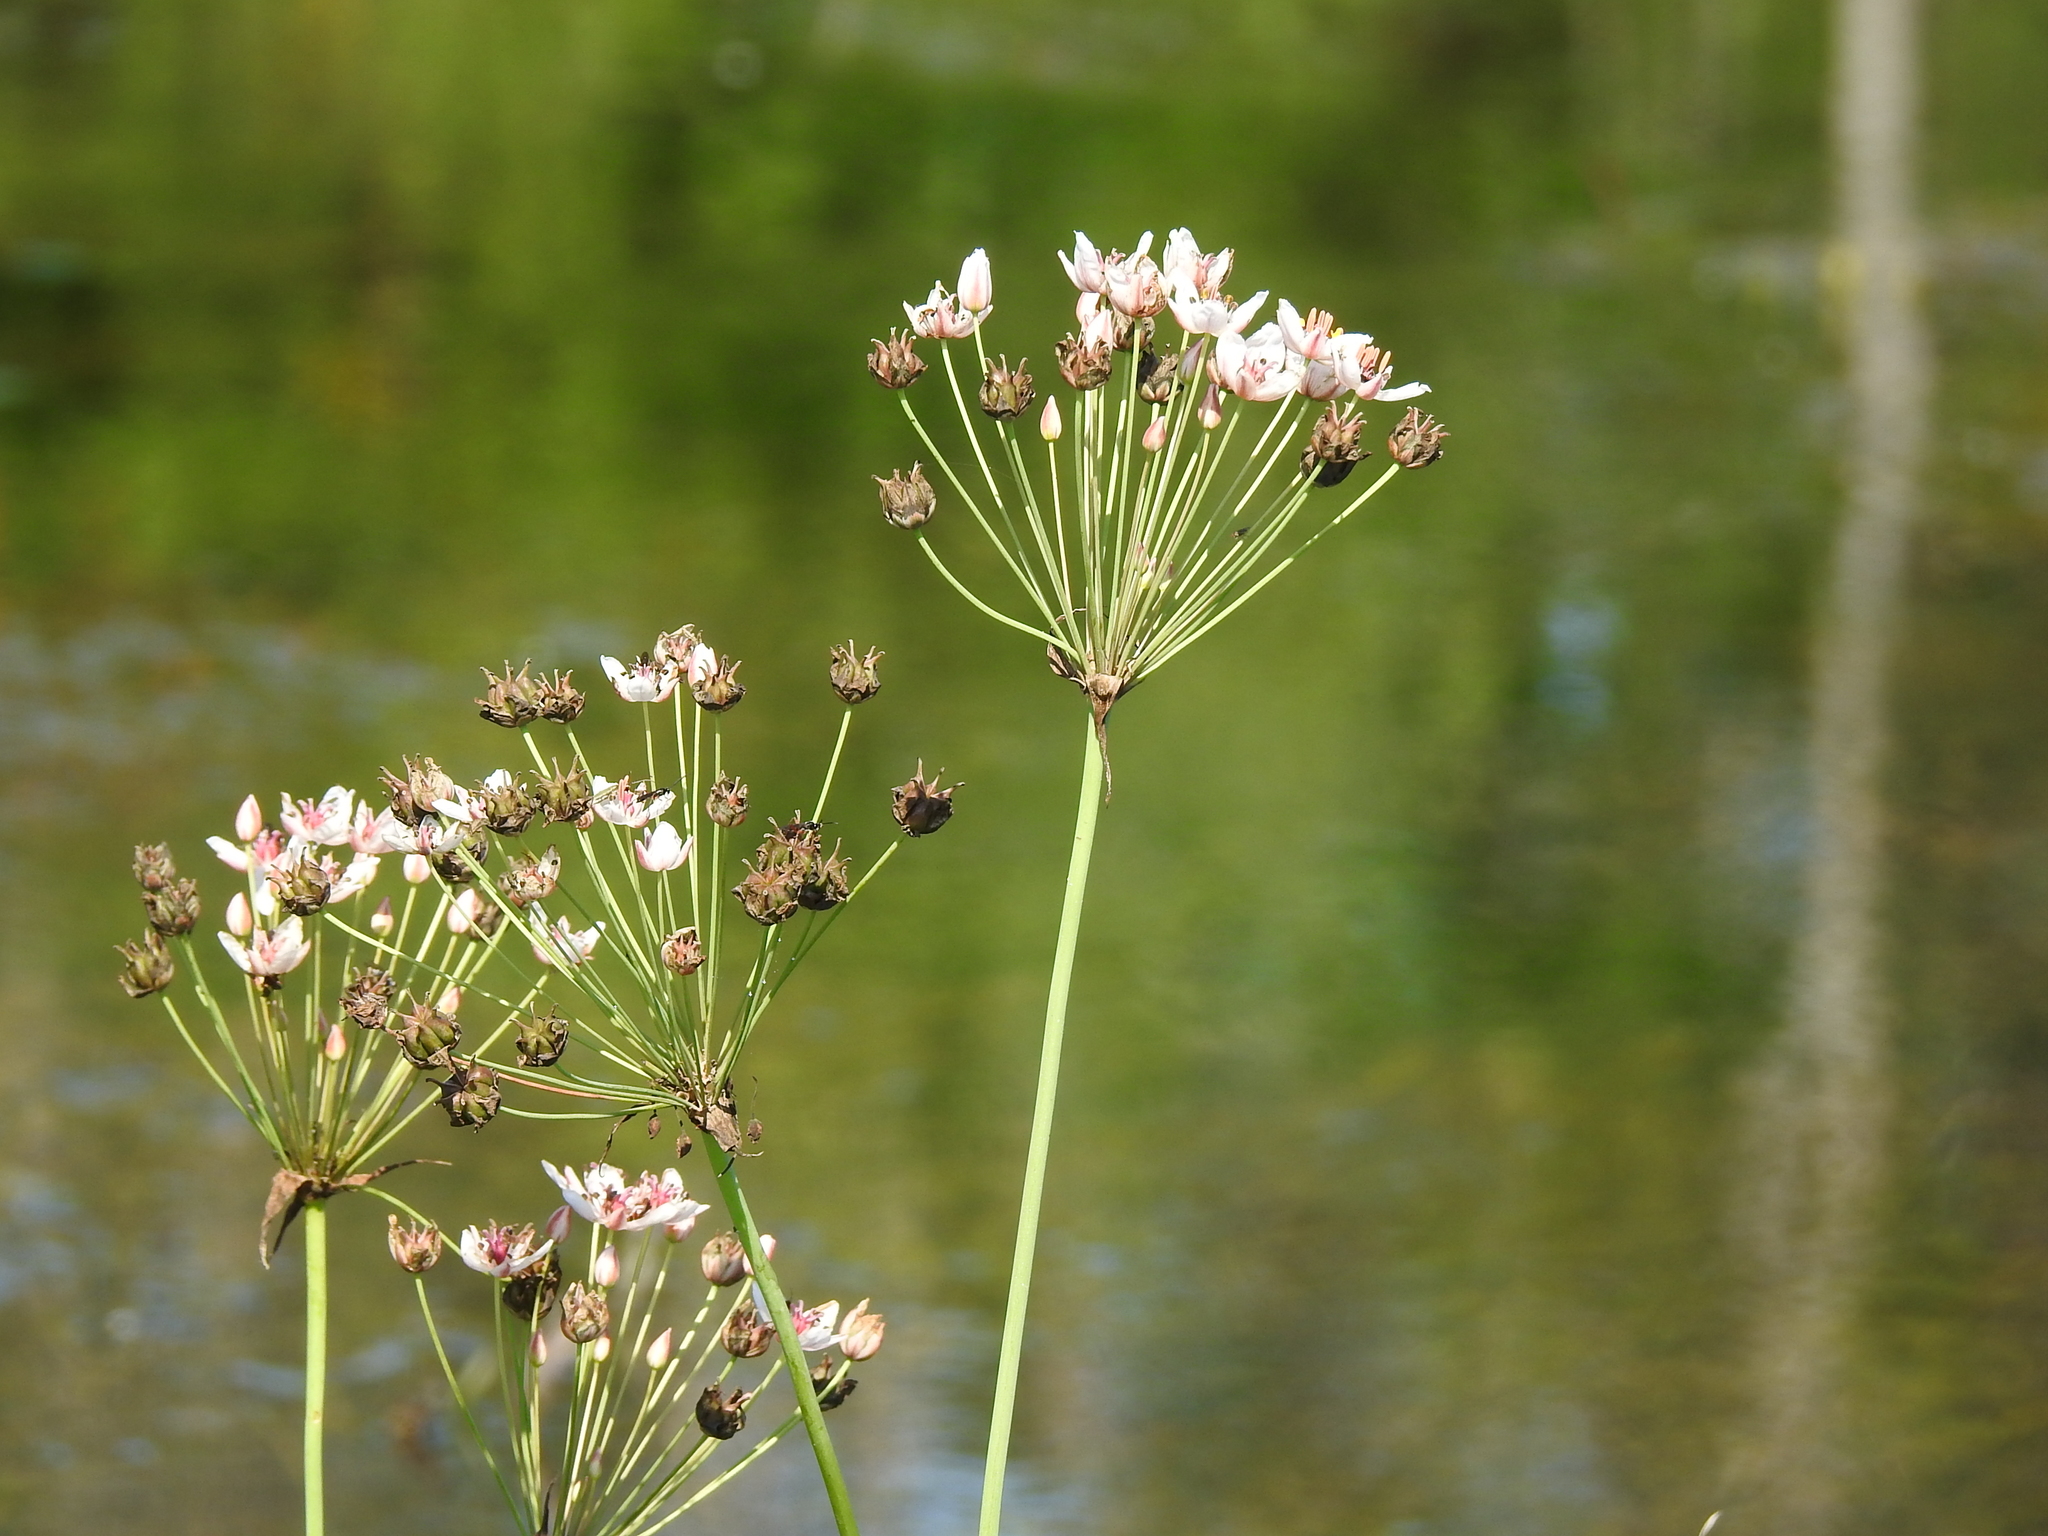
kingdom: Plantae
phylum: Tracheophyta
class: Liliopsida
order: Alismatales
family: Butomaceae
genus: Butomus
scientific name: Butomus umbellatus
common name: Flowering-rush
